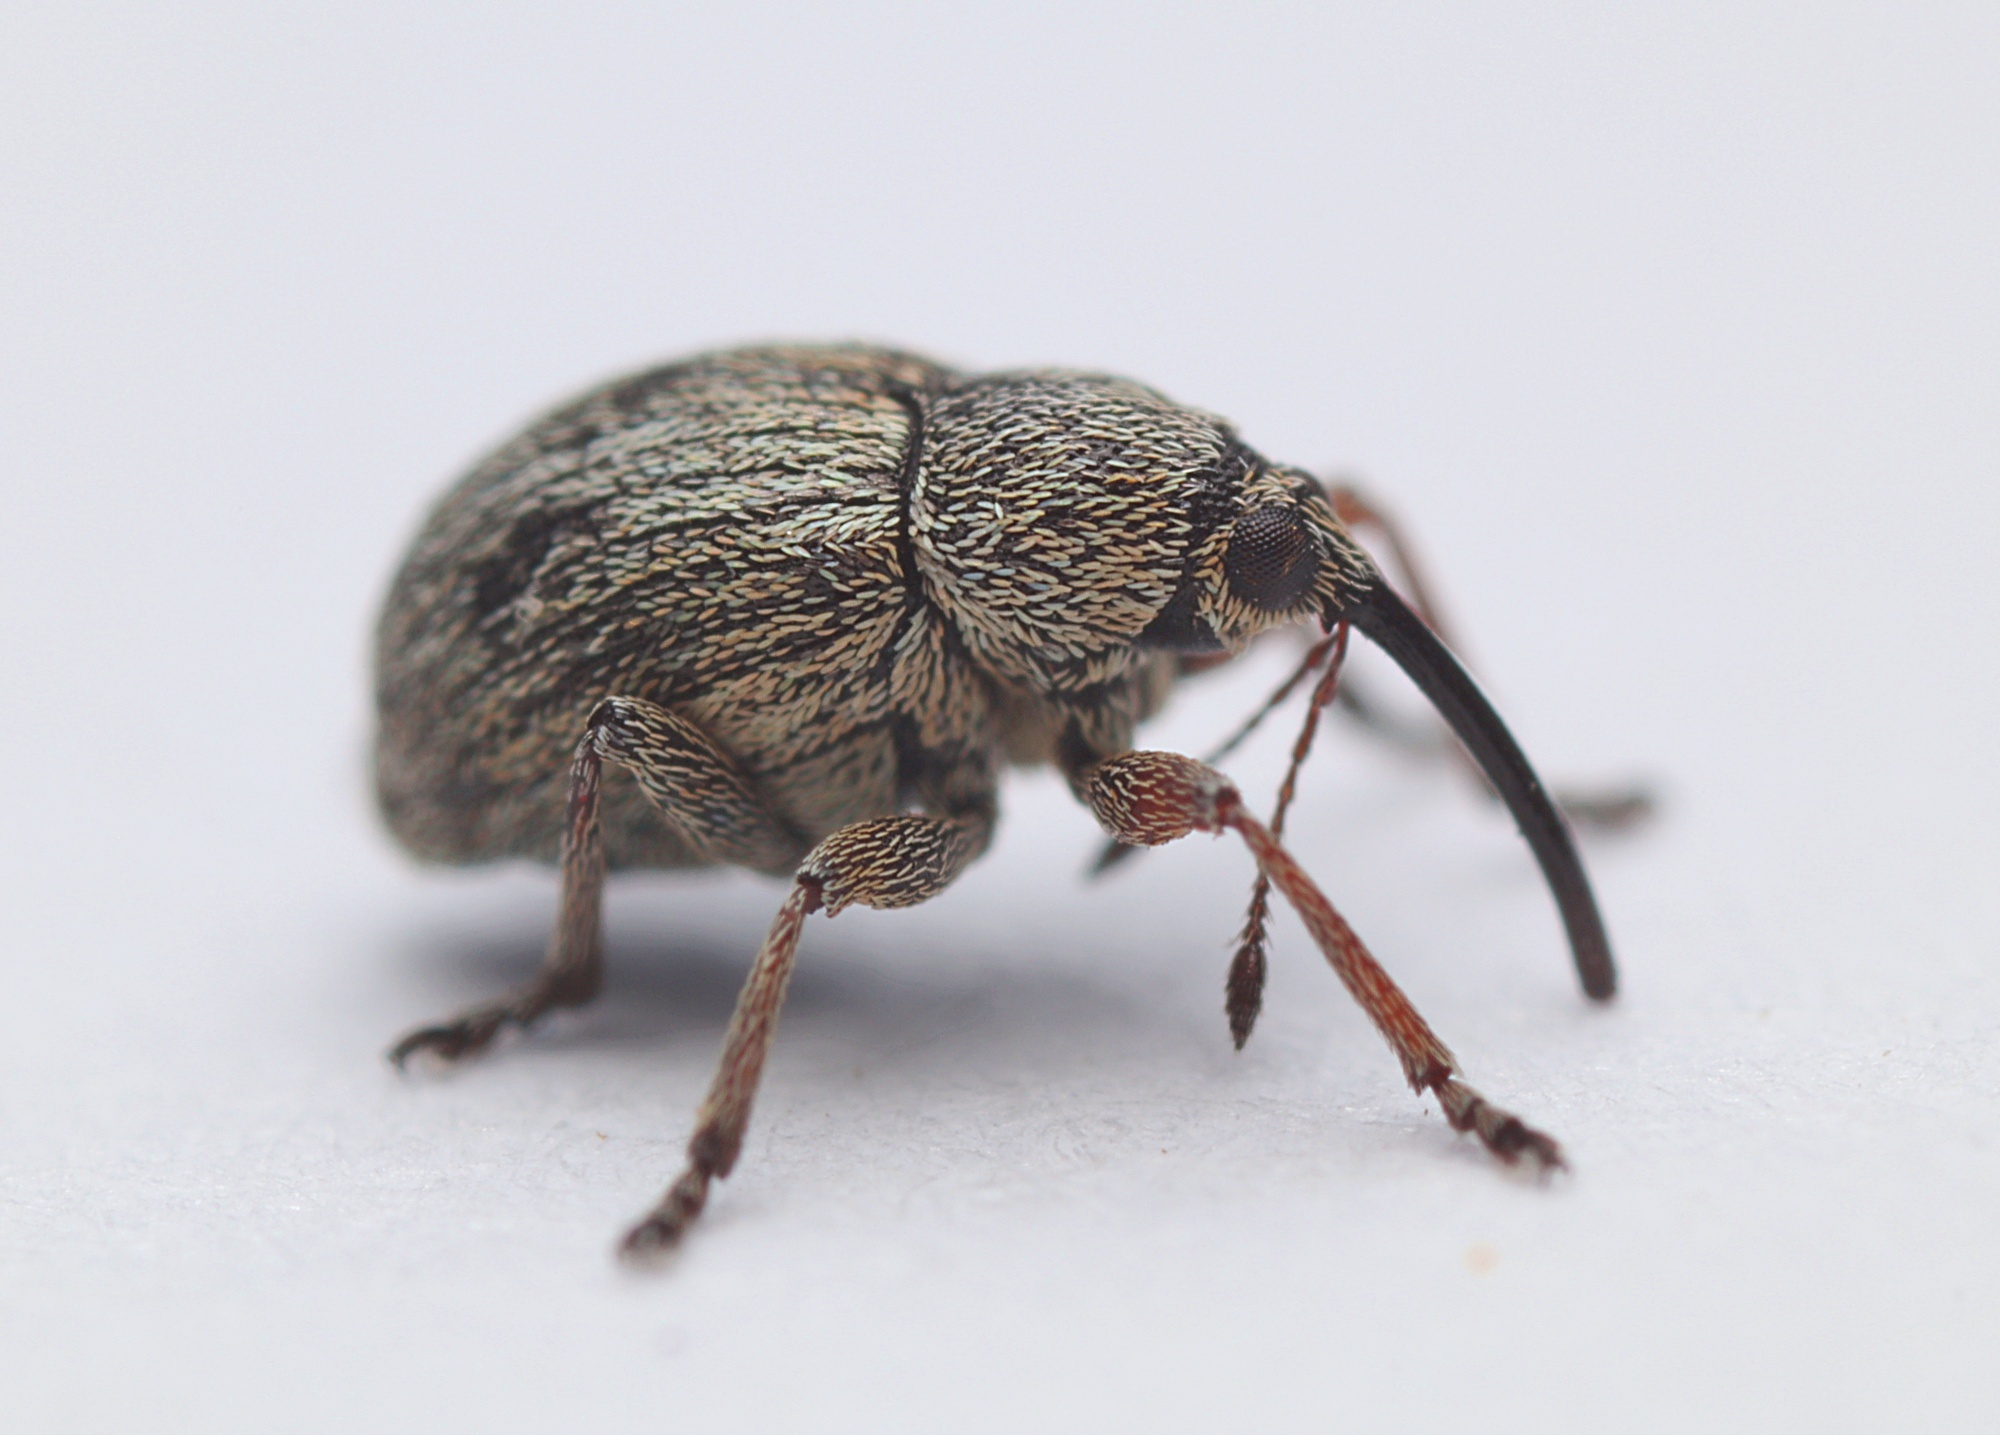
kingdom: Animalia
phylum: Arthropoda
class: Insecta
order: Coleoptera
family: Brentidae
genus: Exapion
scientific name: Exapion ulicis
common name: Gorse seed weevil
